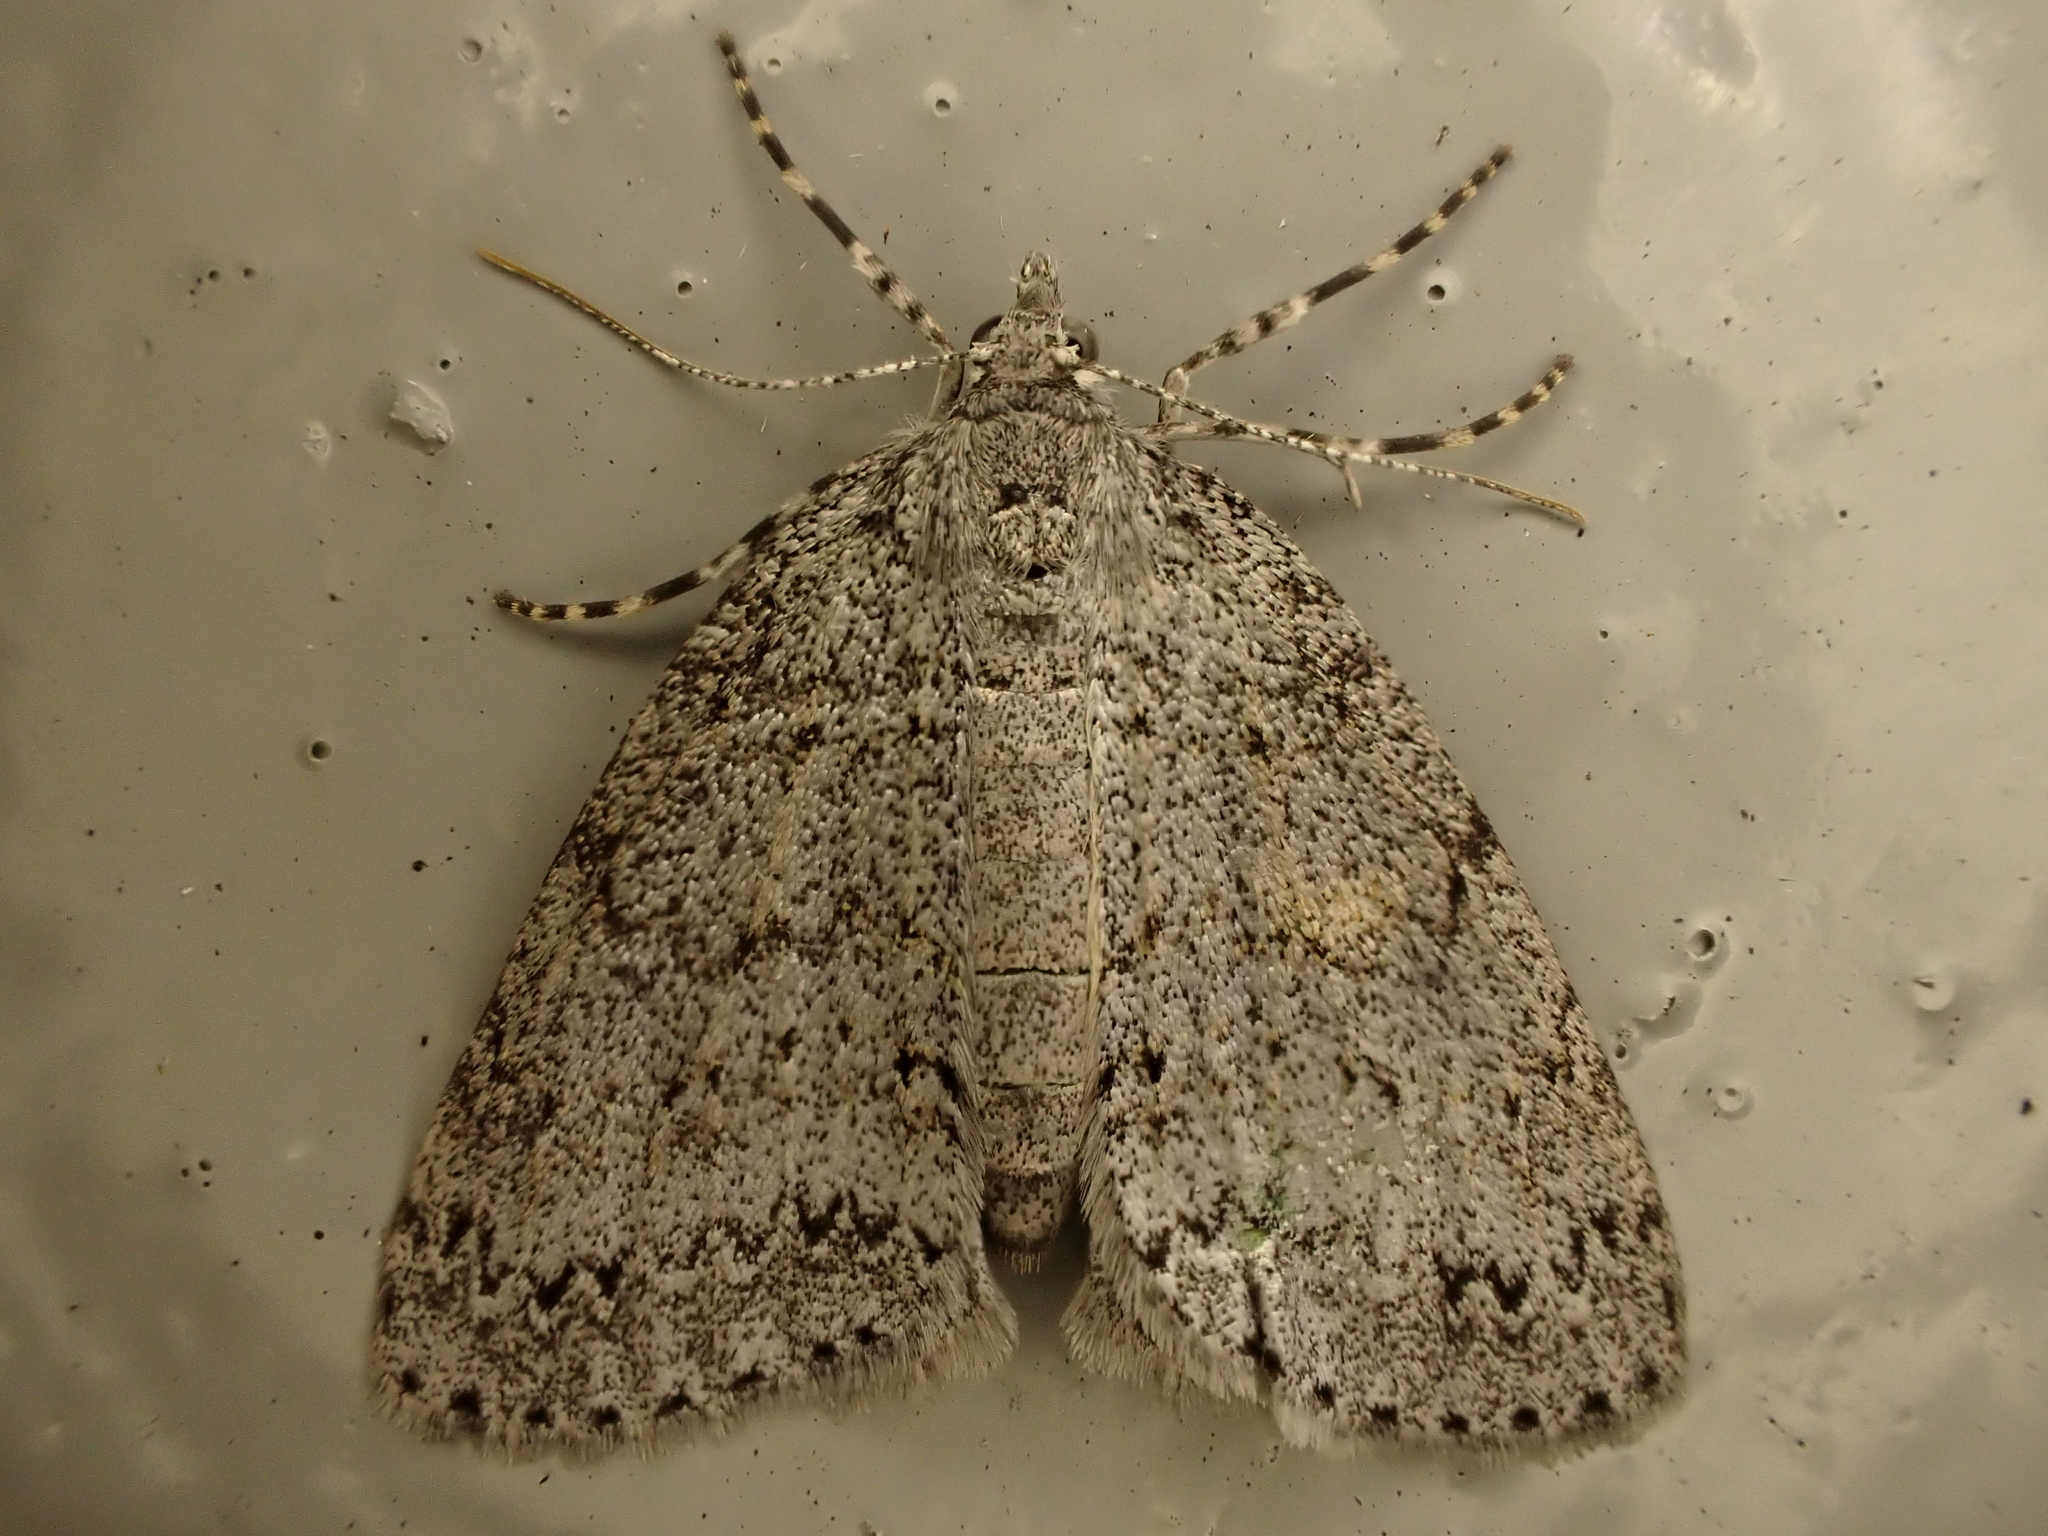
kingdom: Animalia
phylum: Arthropoda
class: Insecta
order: Lepidoptera
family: Geometridae
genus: Pseudocoremia
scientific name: Pseudocoremia fenerata
